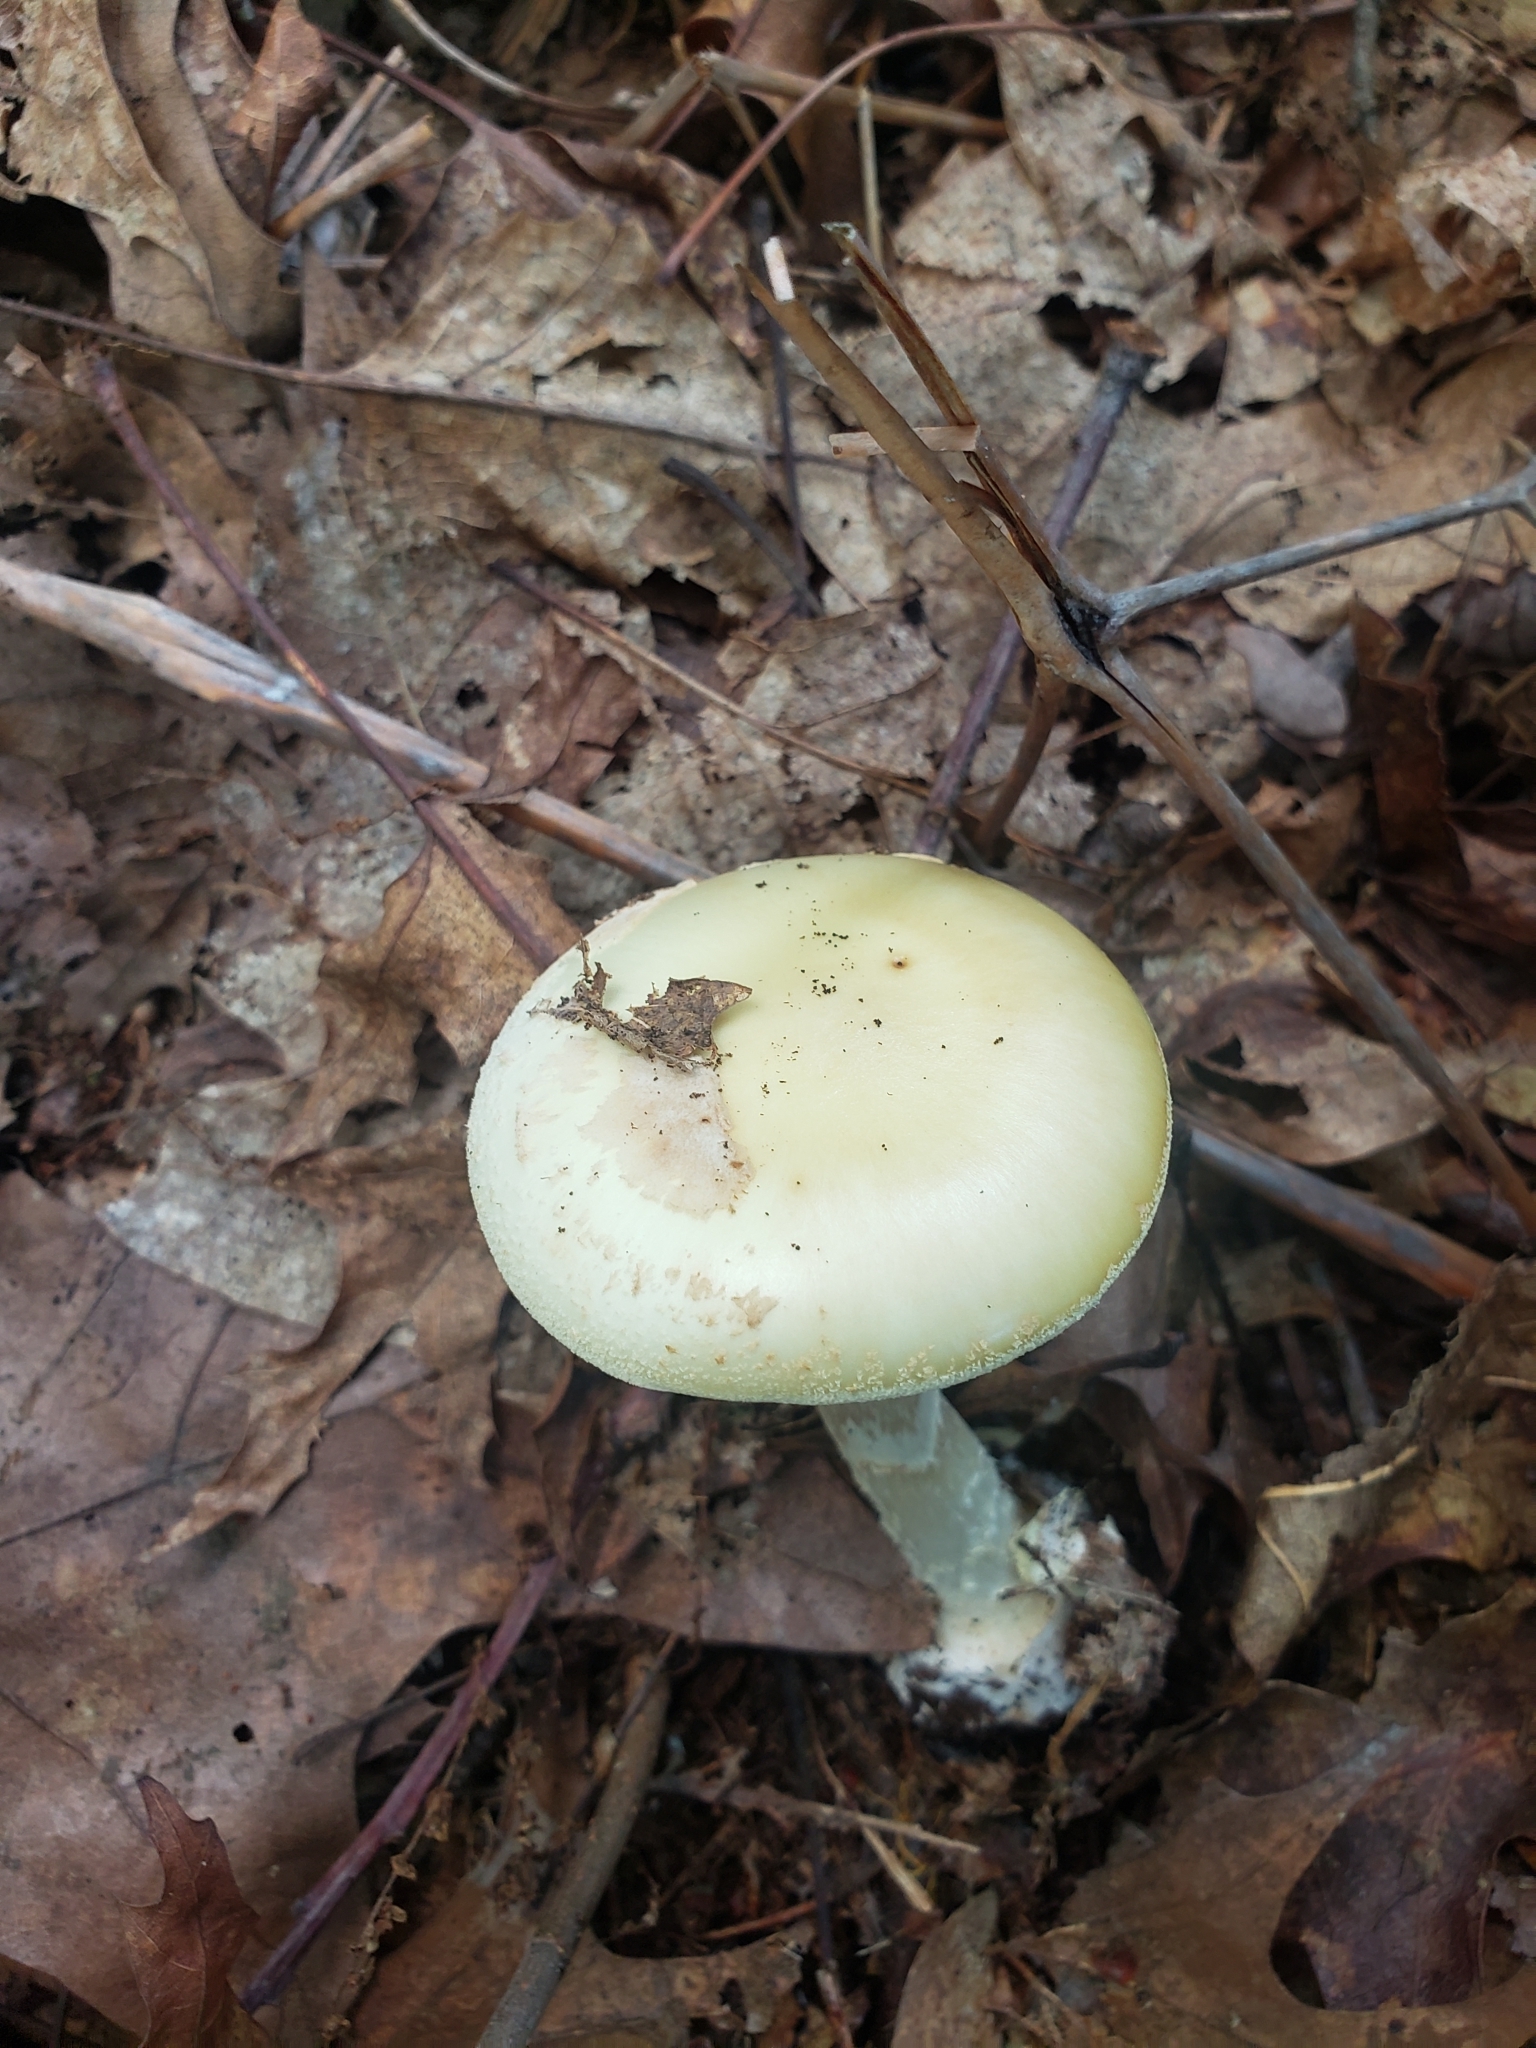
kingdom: Fungi
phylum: Basidiomycota
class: Agaricomycetes
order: Agaricales
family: Amanitaceae
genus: Amanita
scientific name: Amanita lavendula
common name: Coker's lavender staining amanita
